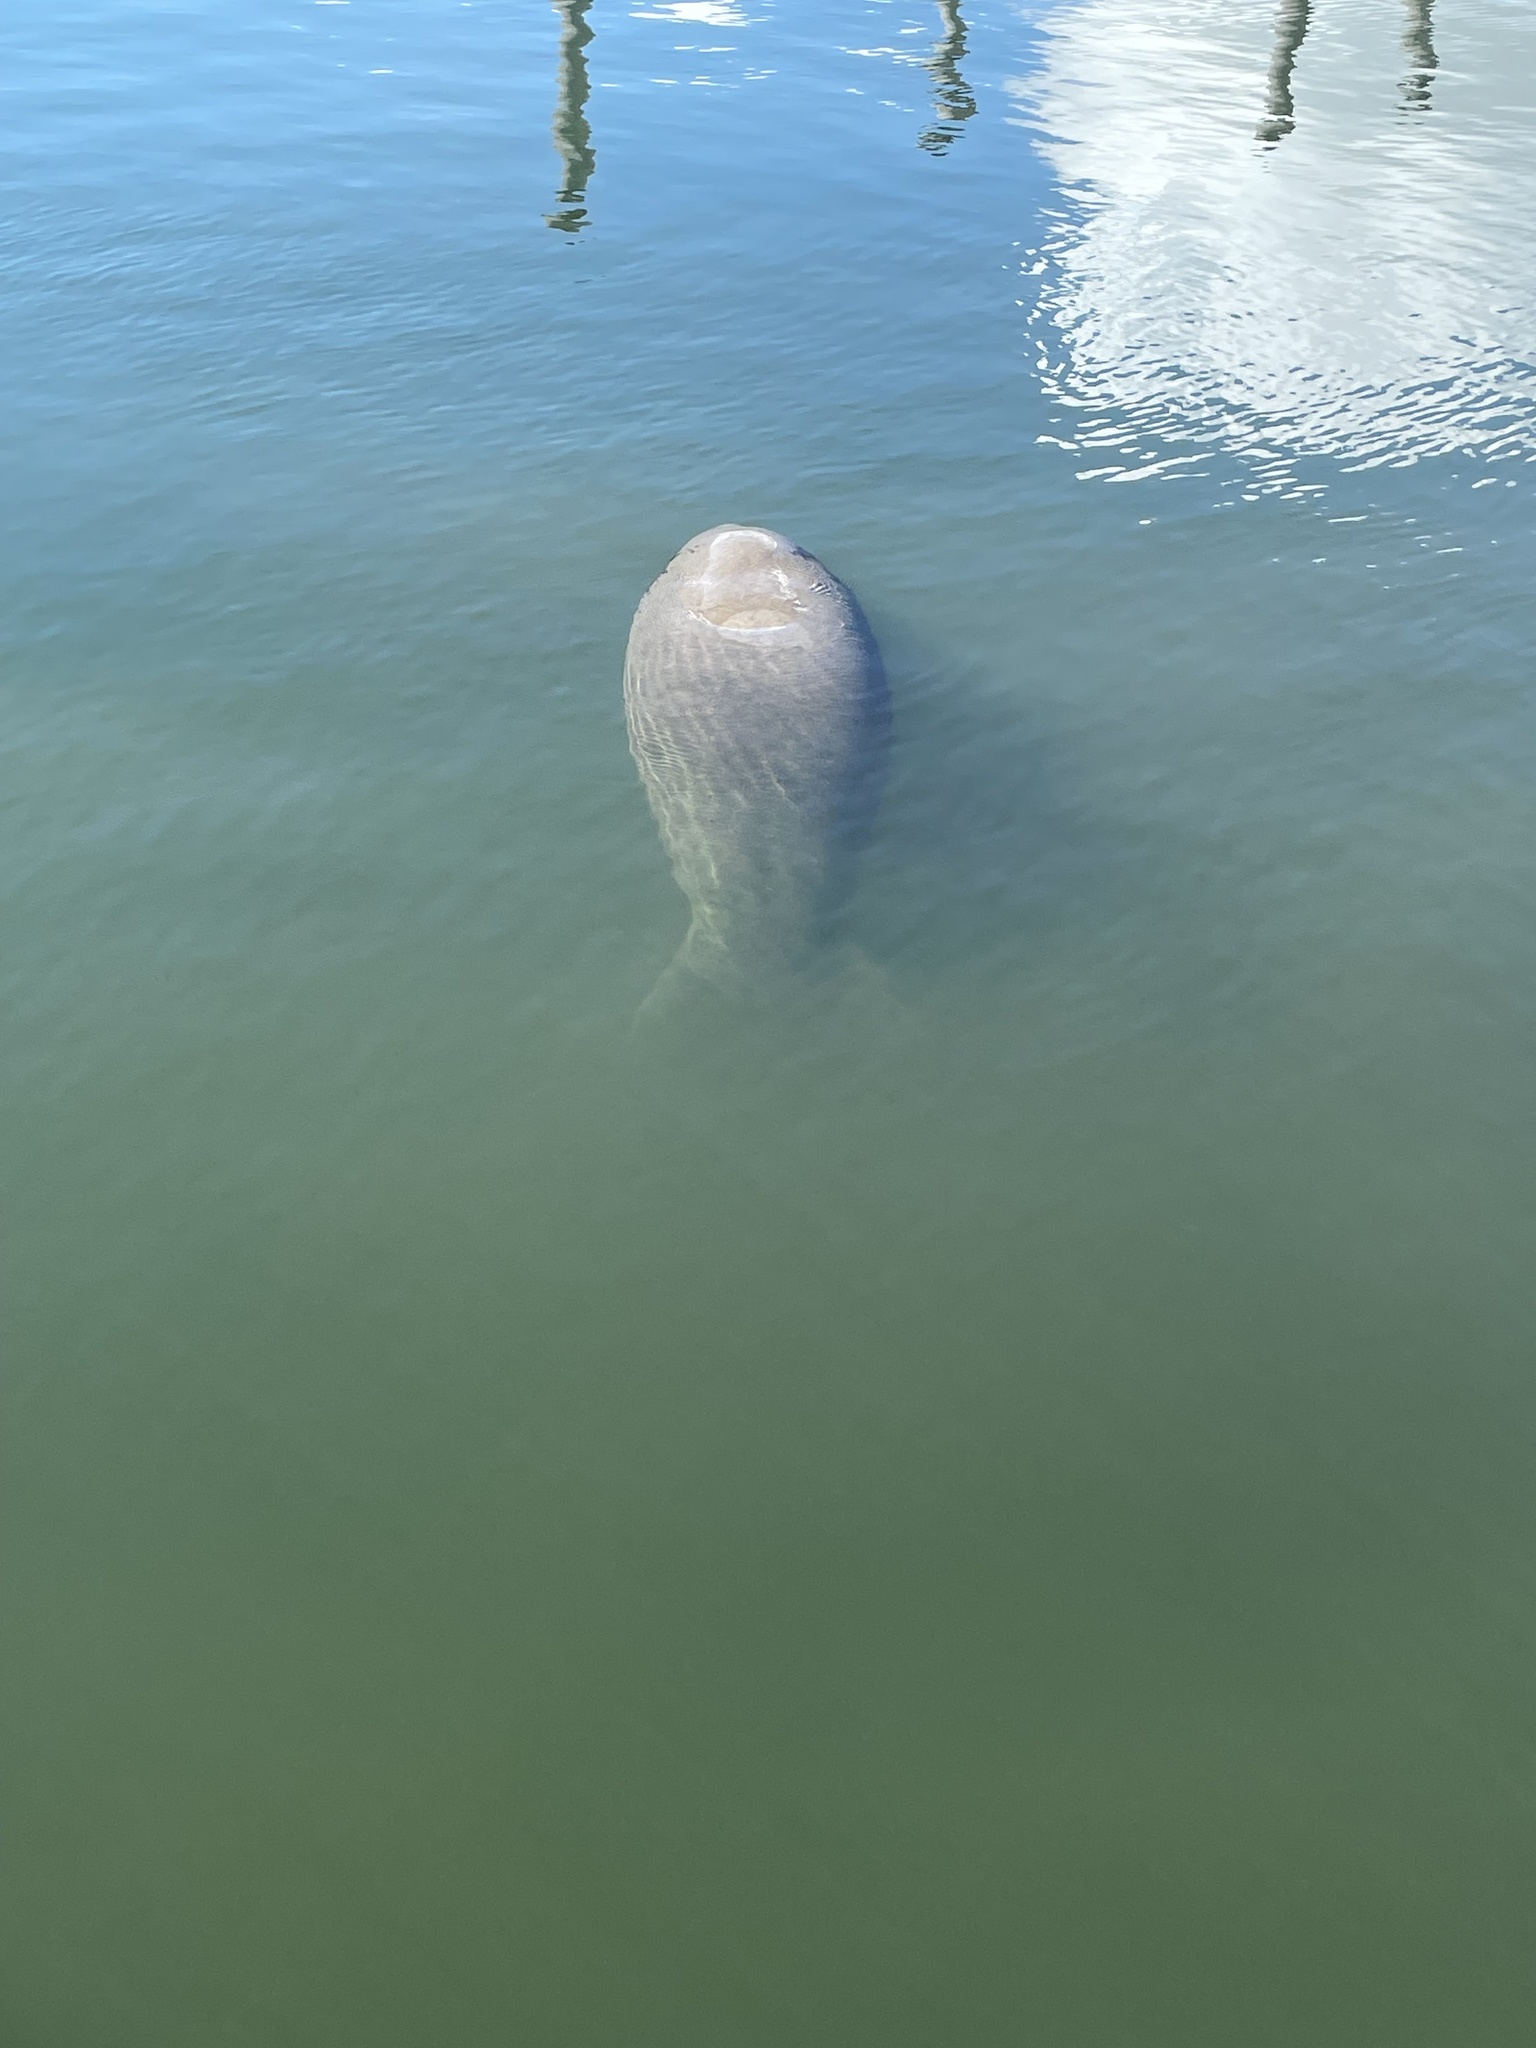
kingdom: Animalia
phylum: Chordata
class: Mammalia
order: Sirenia
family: Trichechidae
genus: Trichechus
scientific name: Trichechus manatus
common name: West indian manatee
